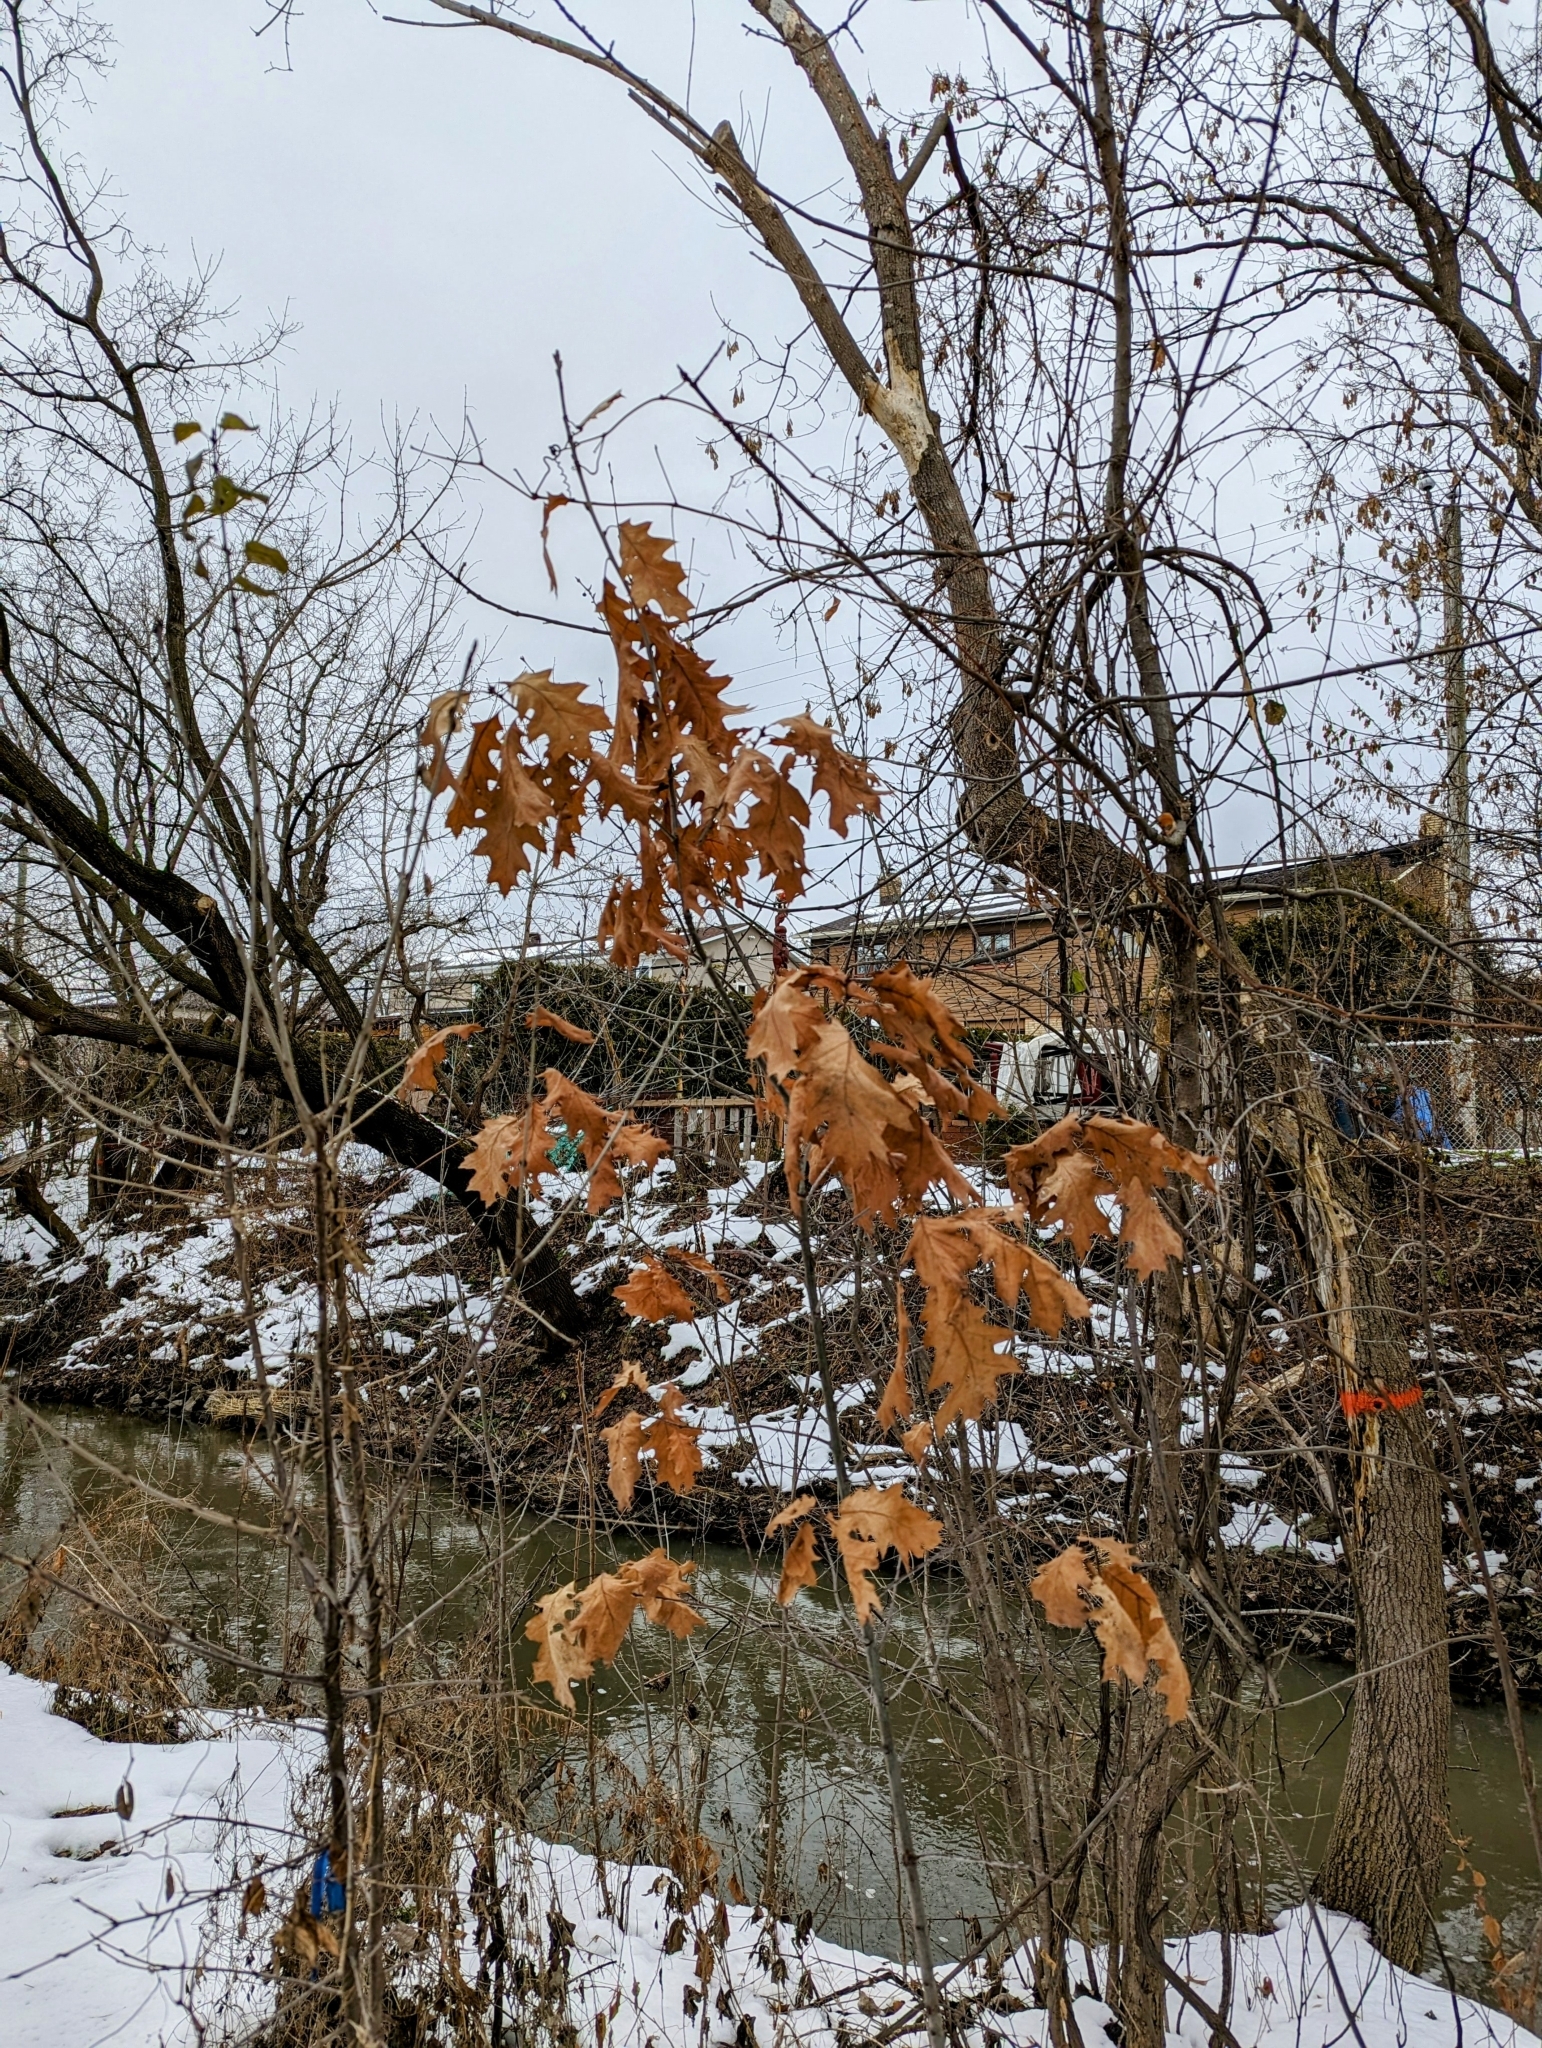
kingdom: Plantae
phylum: Tracheophyta
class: Magnoliopsida
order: Fagales
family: Fagaceae
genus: Quercus
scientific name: Quercus rubra
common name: Red oak
